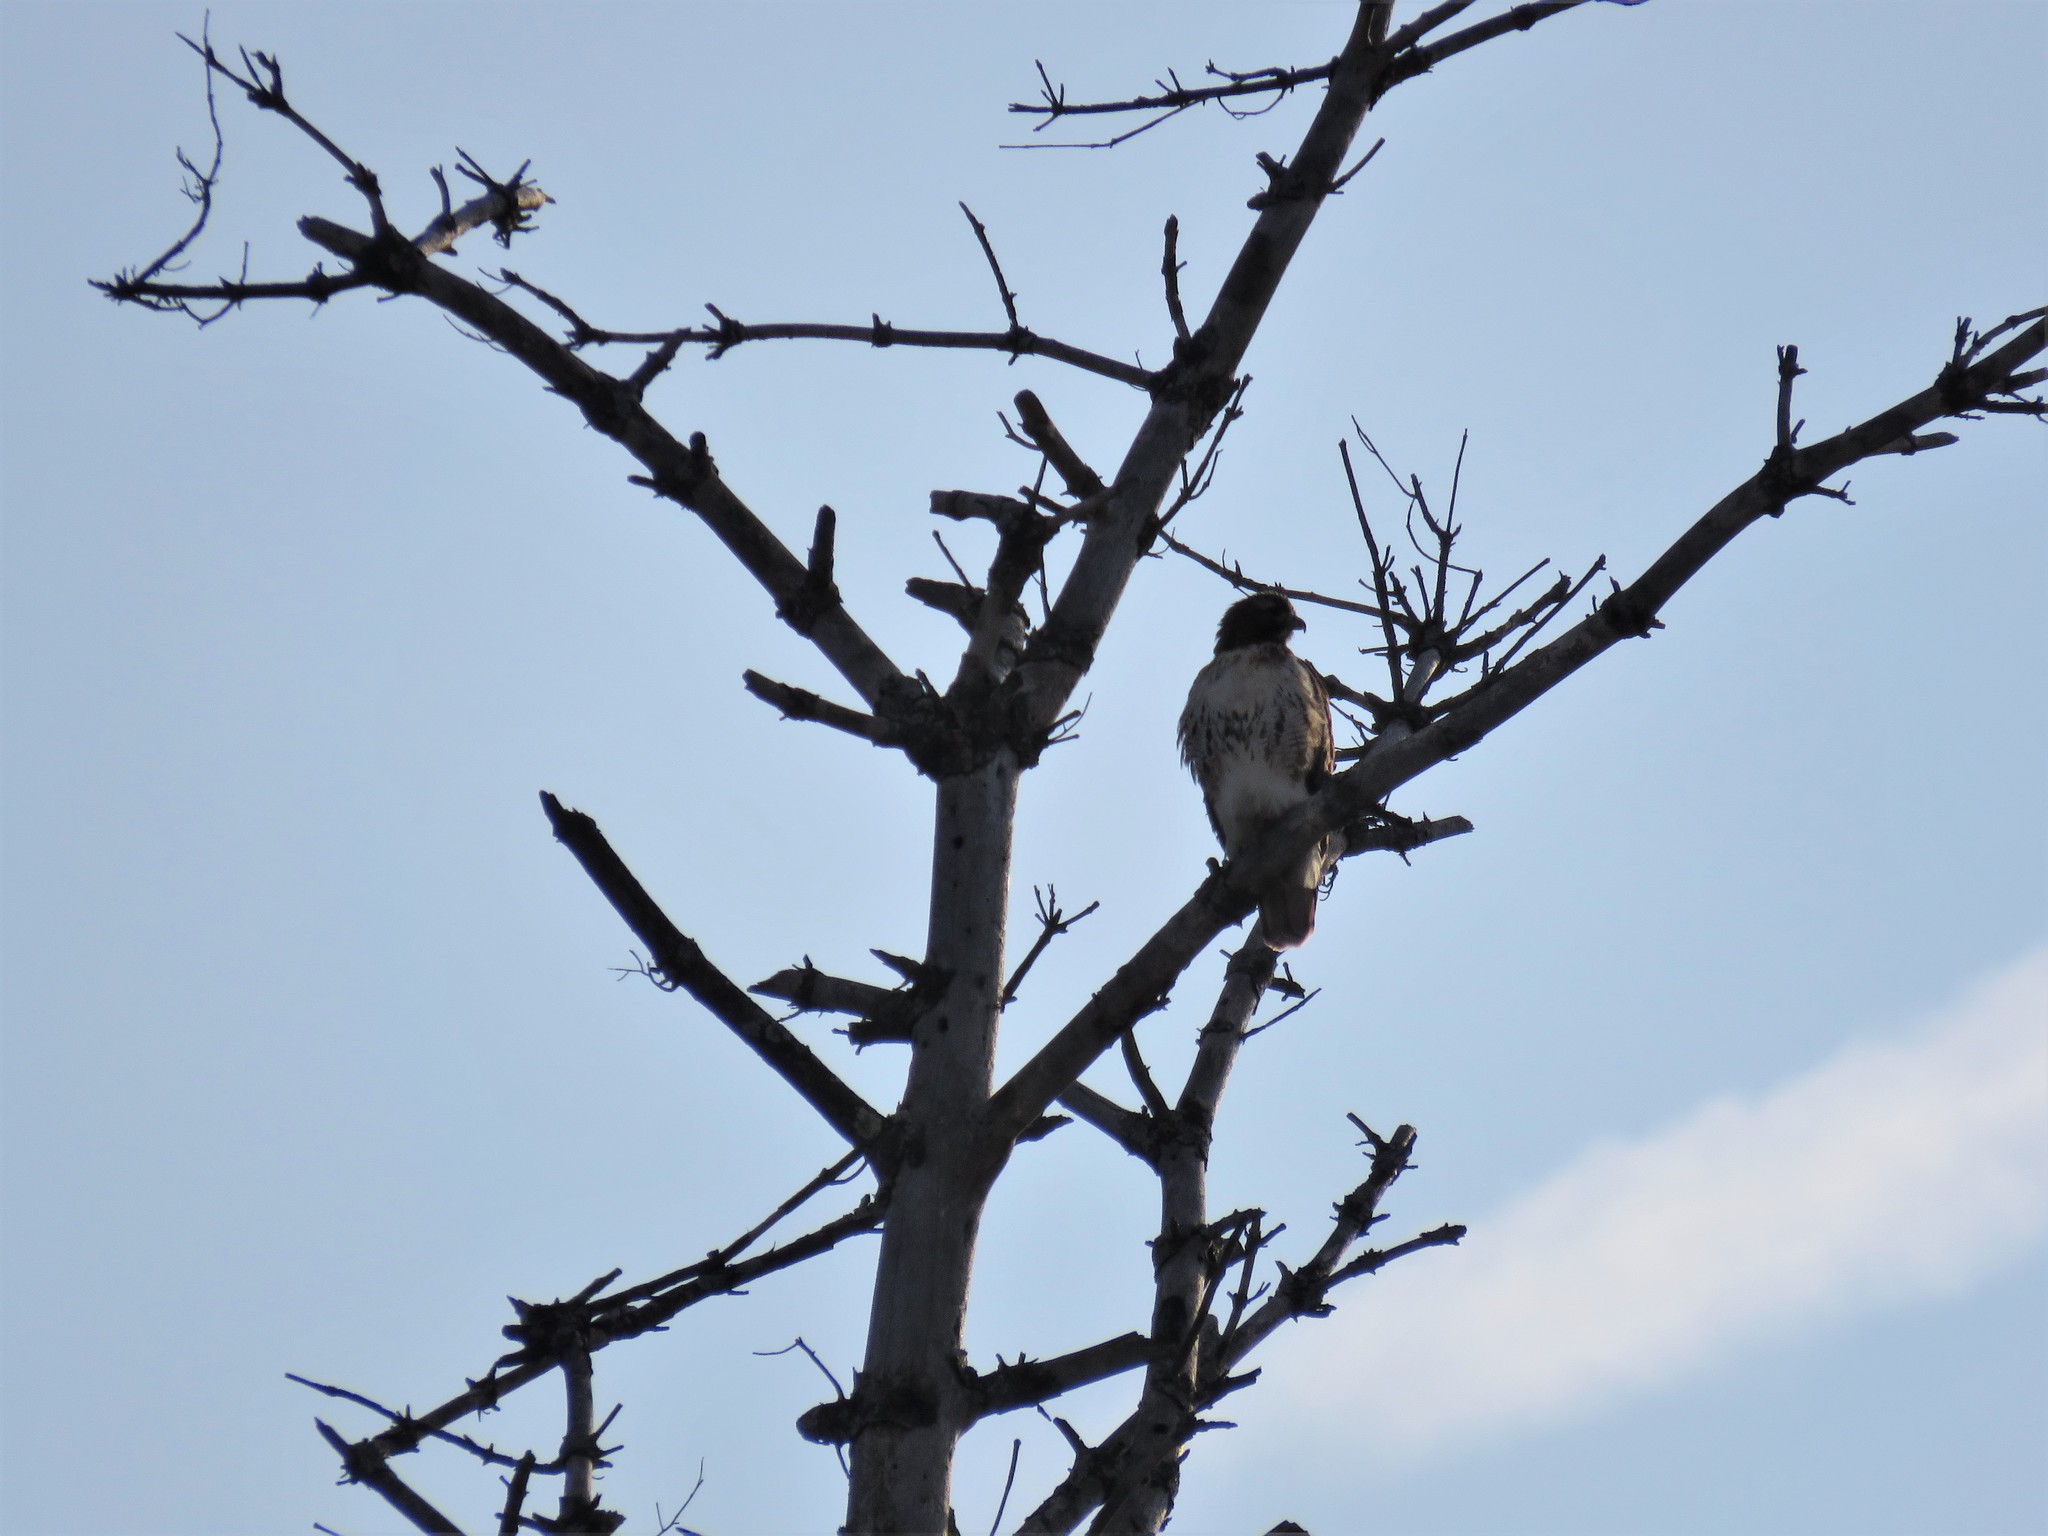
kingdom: Animalia
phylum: Chordata
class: Aves
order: Accipitriformes
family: Accipitridae
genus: Buteo
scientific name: Buteo jamaicensis
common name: Red-tailed hawk
